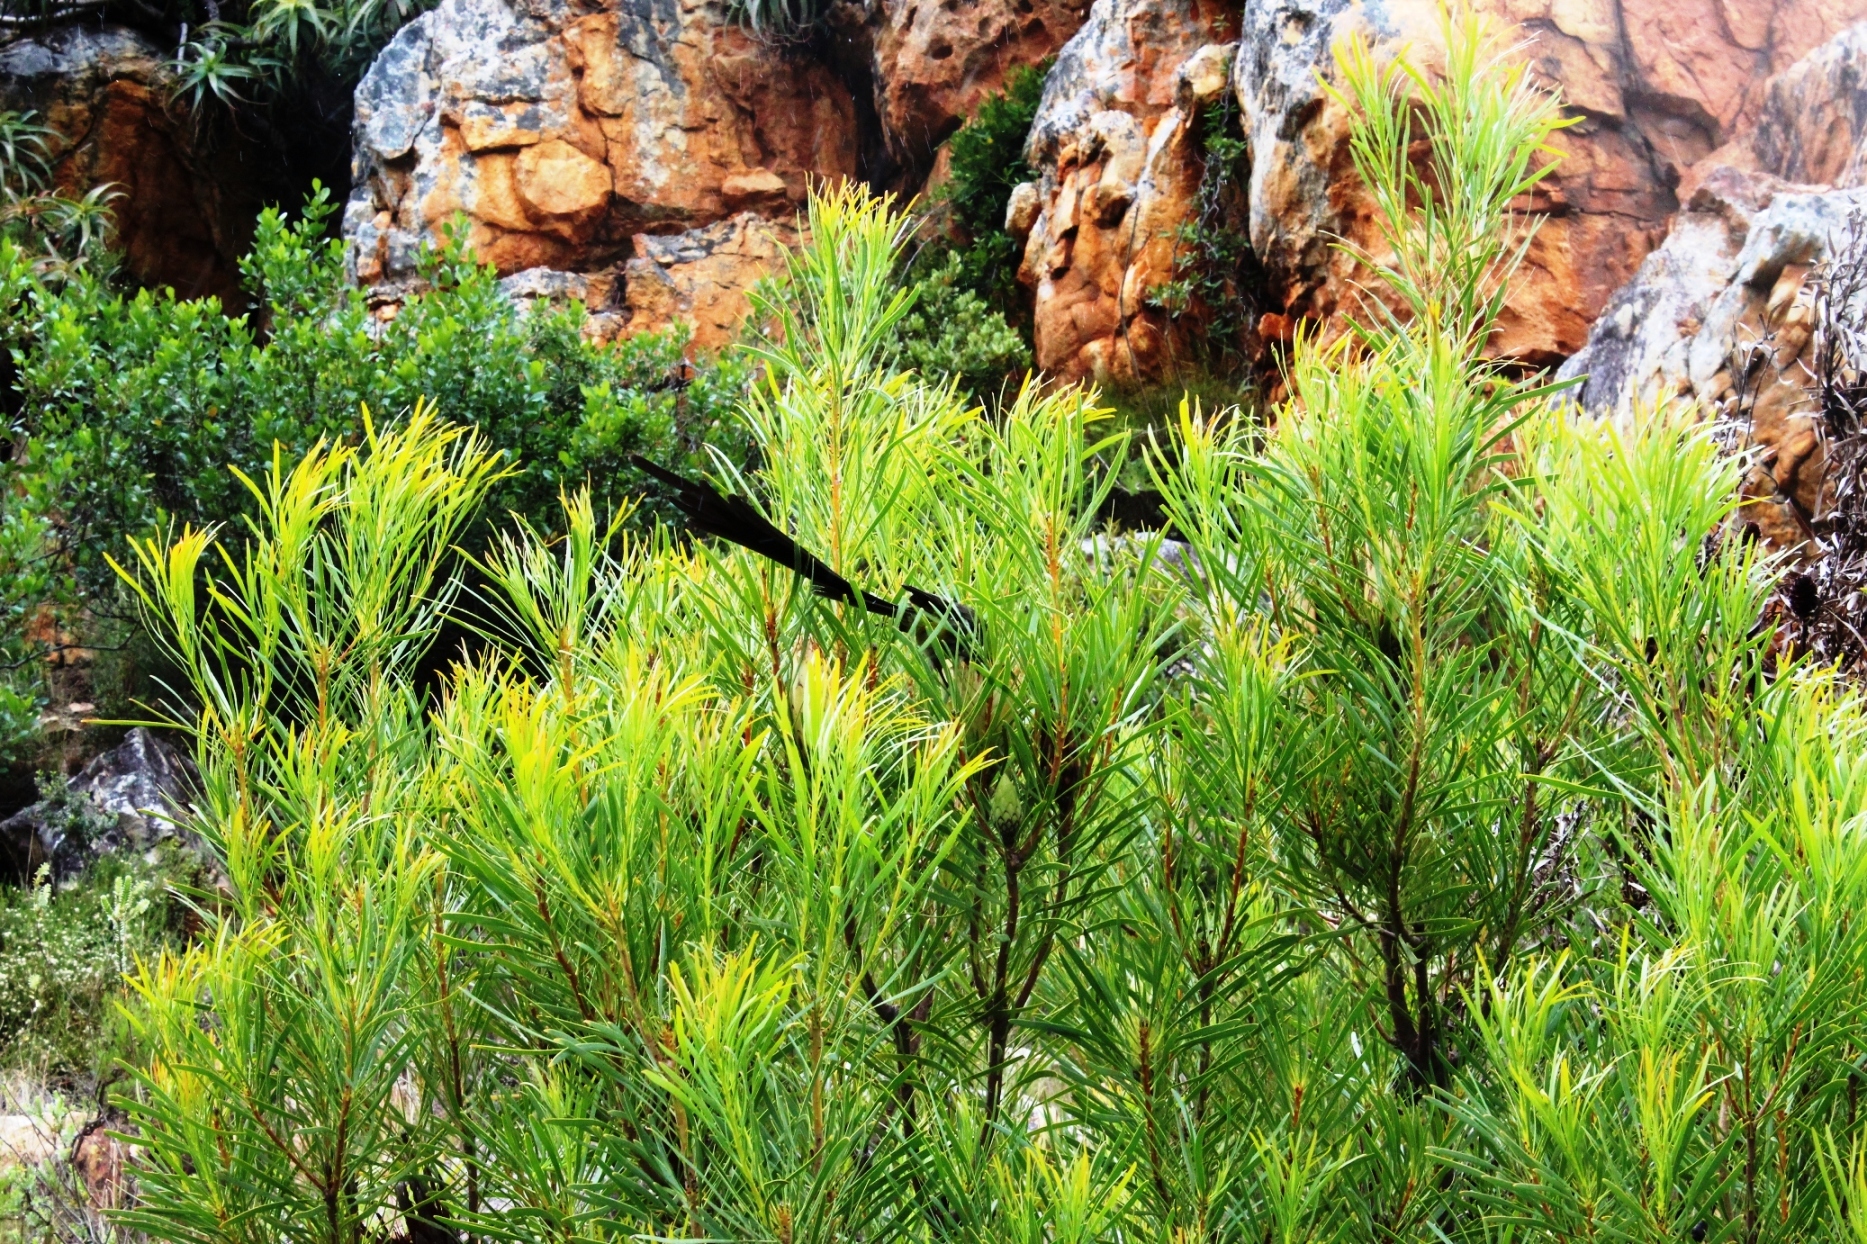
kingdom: Plantae
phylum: Tracheophyta
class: Magnoliopsida
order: Proteales
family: Proteaceae
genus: Protea
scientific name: Protea repens
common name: Sugarbush
